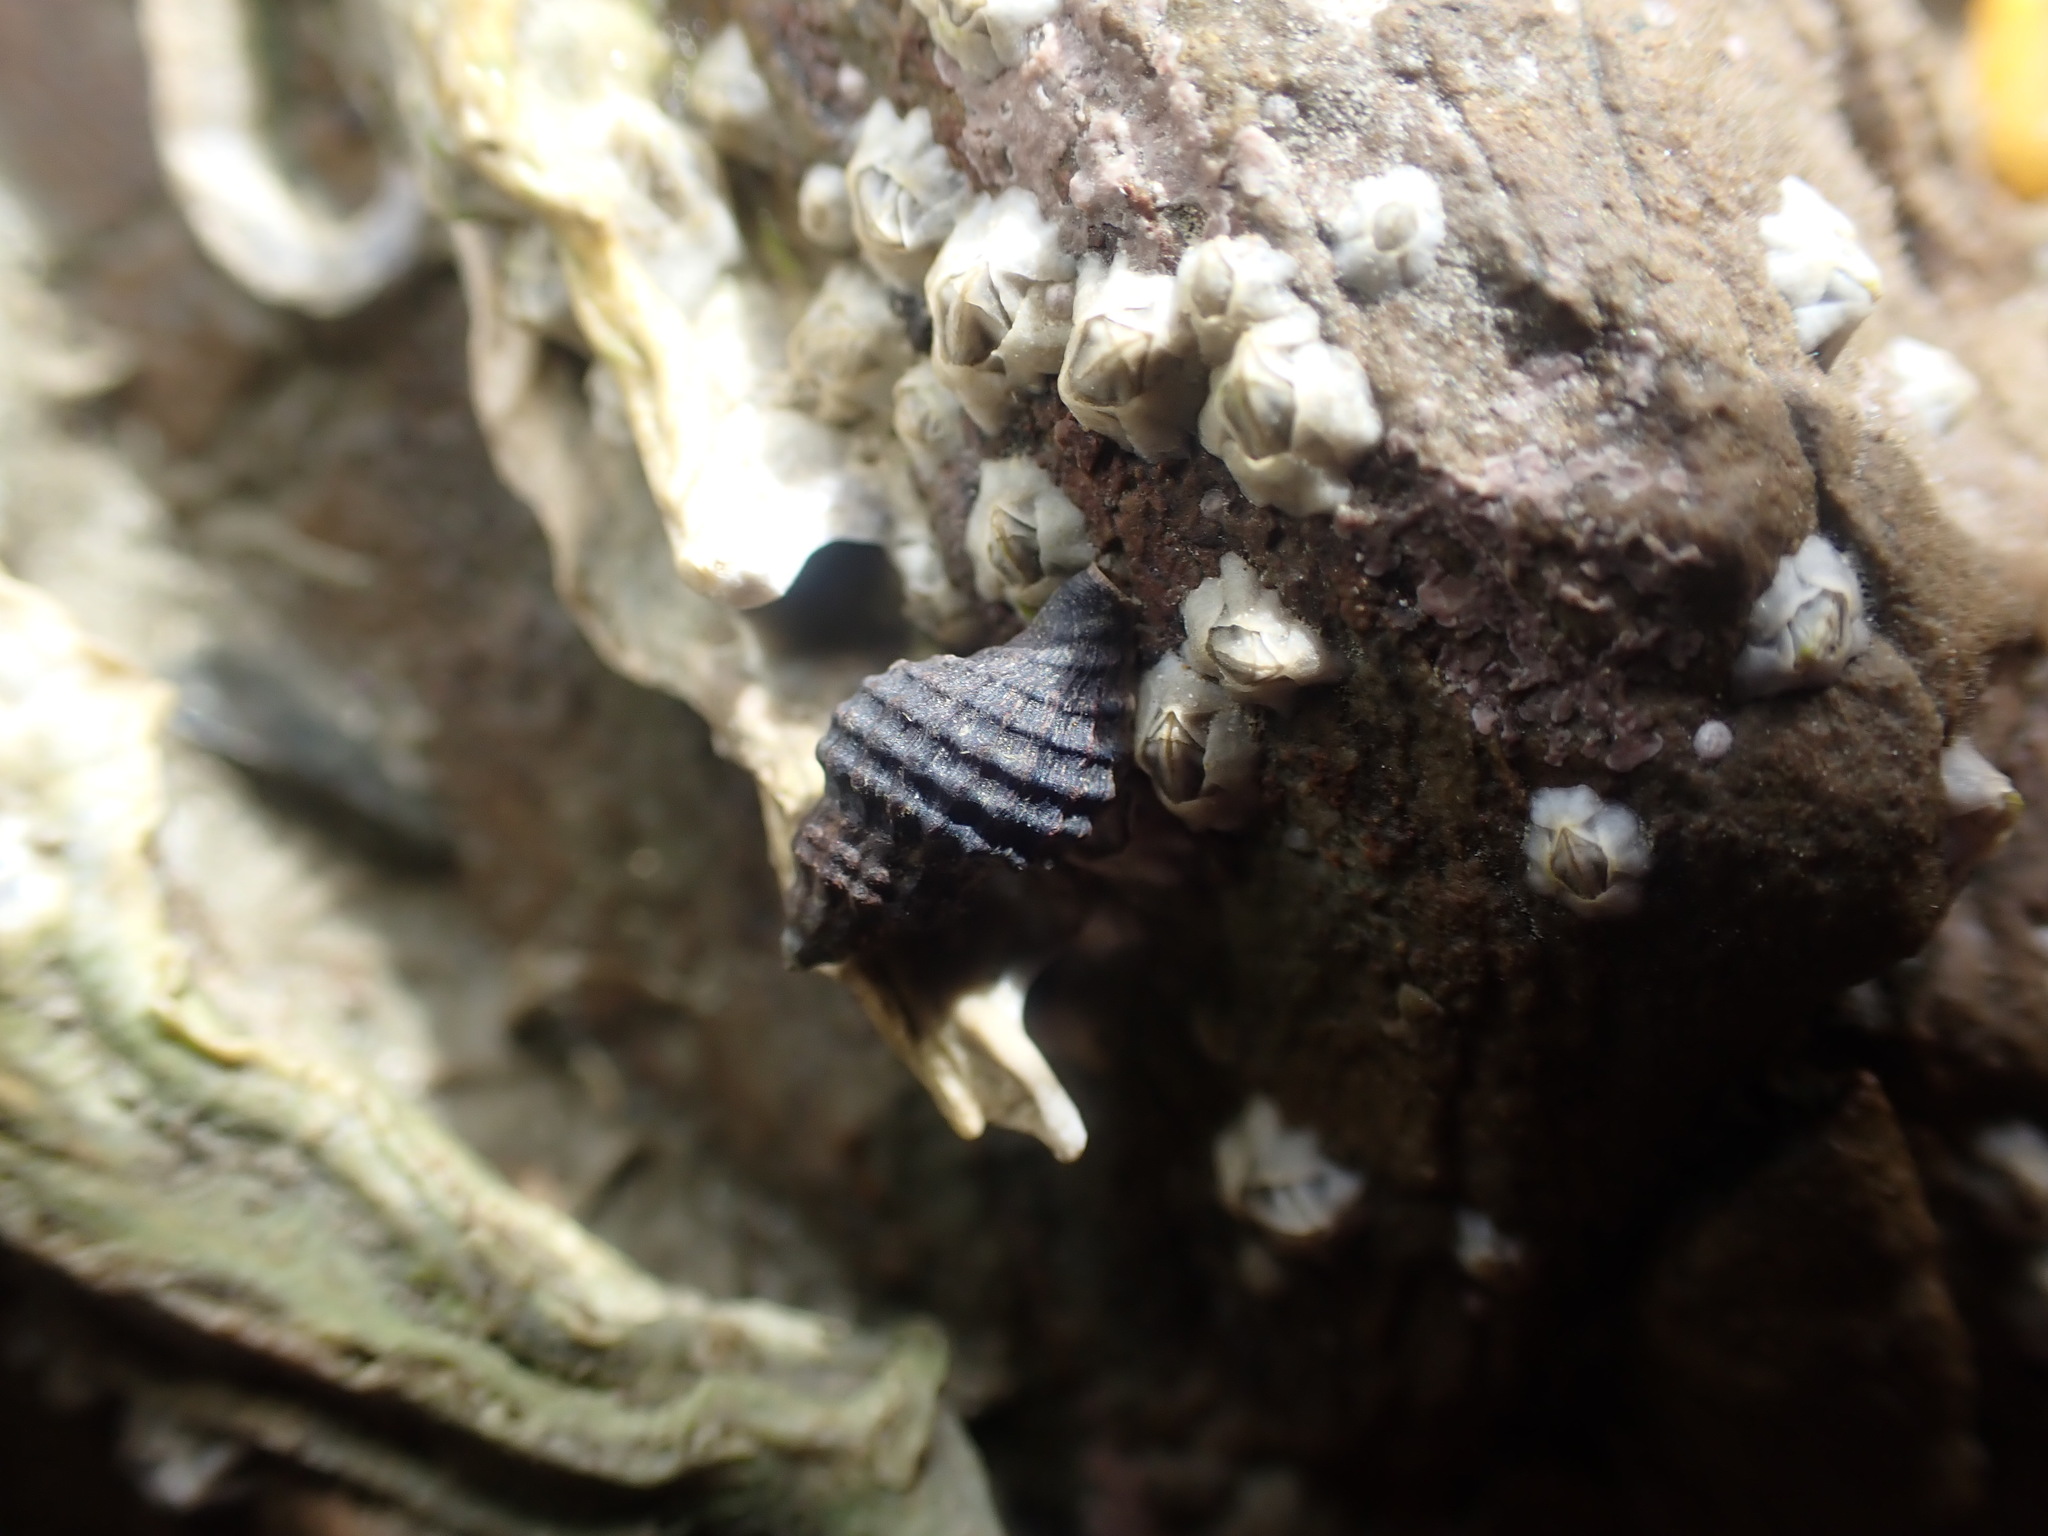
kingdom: Animalia
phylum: Mollusca
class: Gastropoda
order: Neogastropoda
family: Muricidae
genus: Xymene
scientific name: Xymene plebeius
